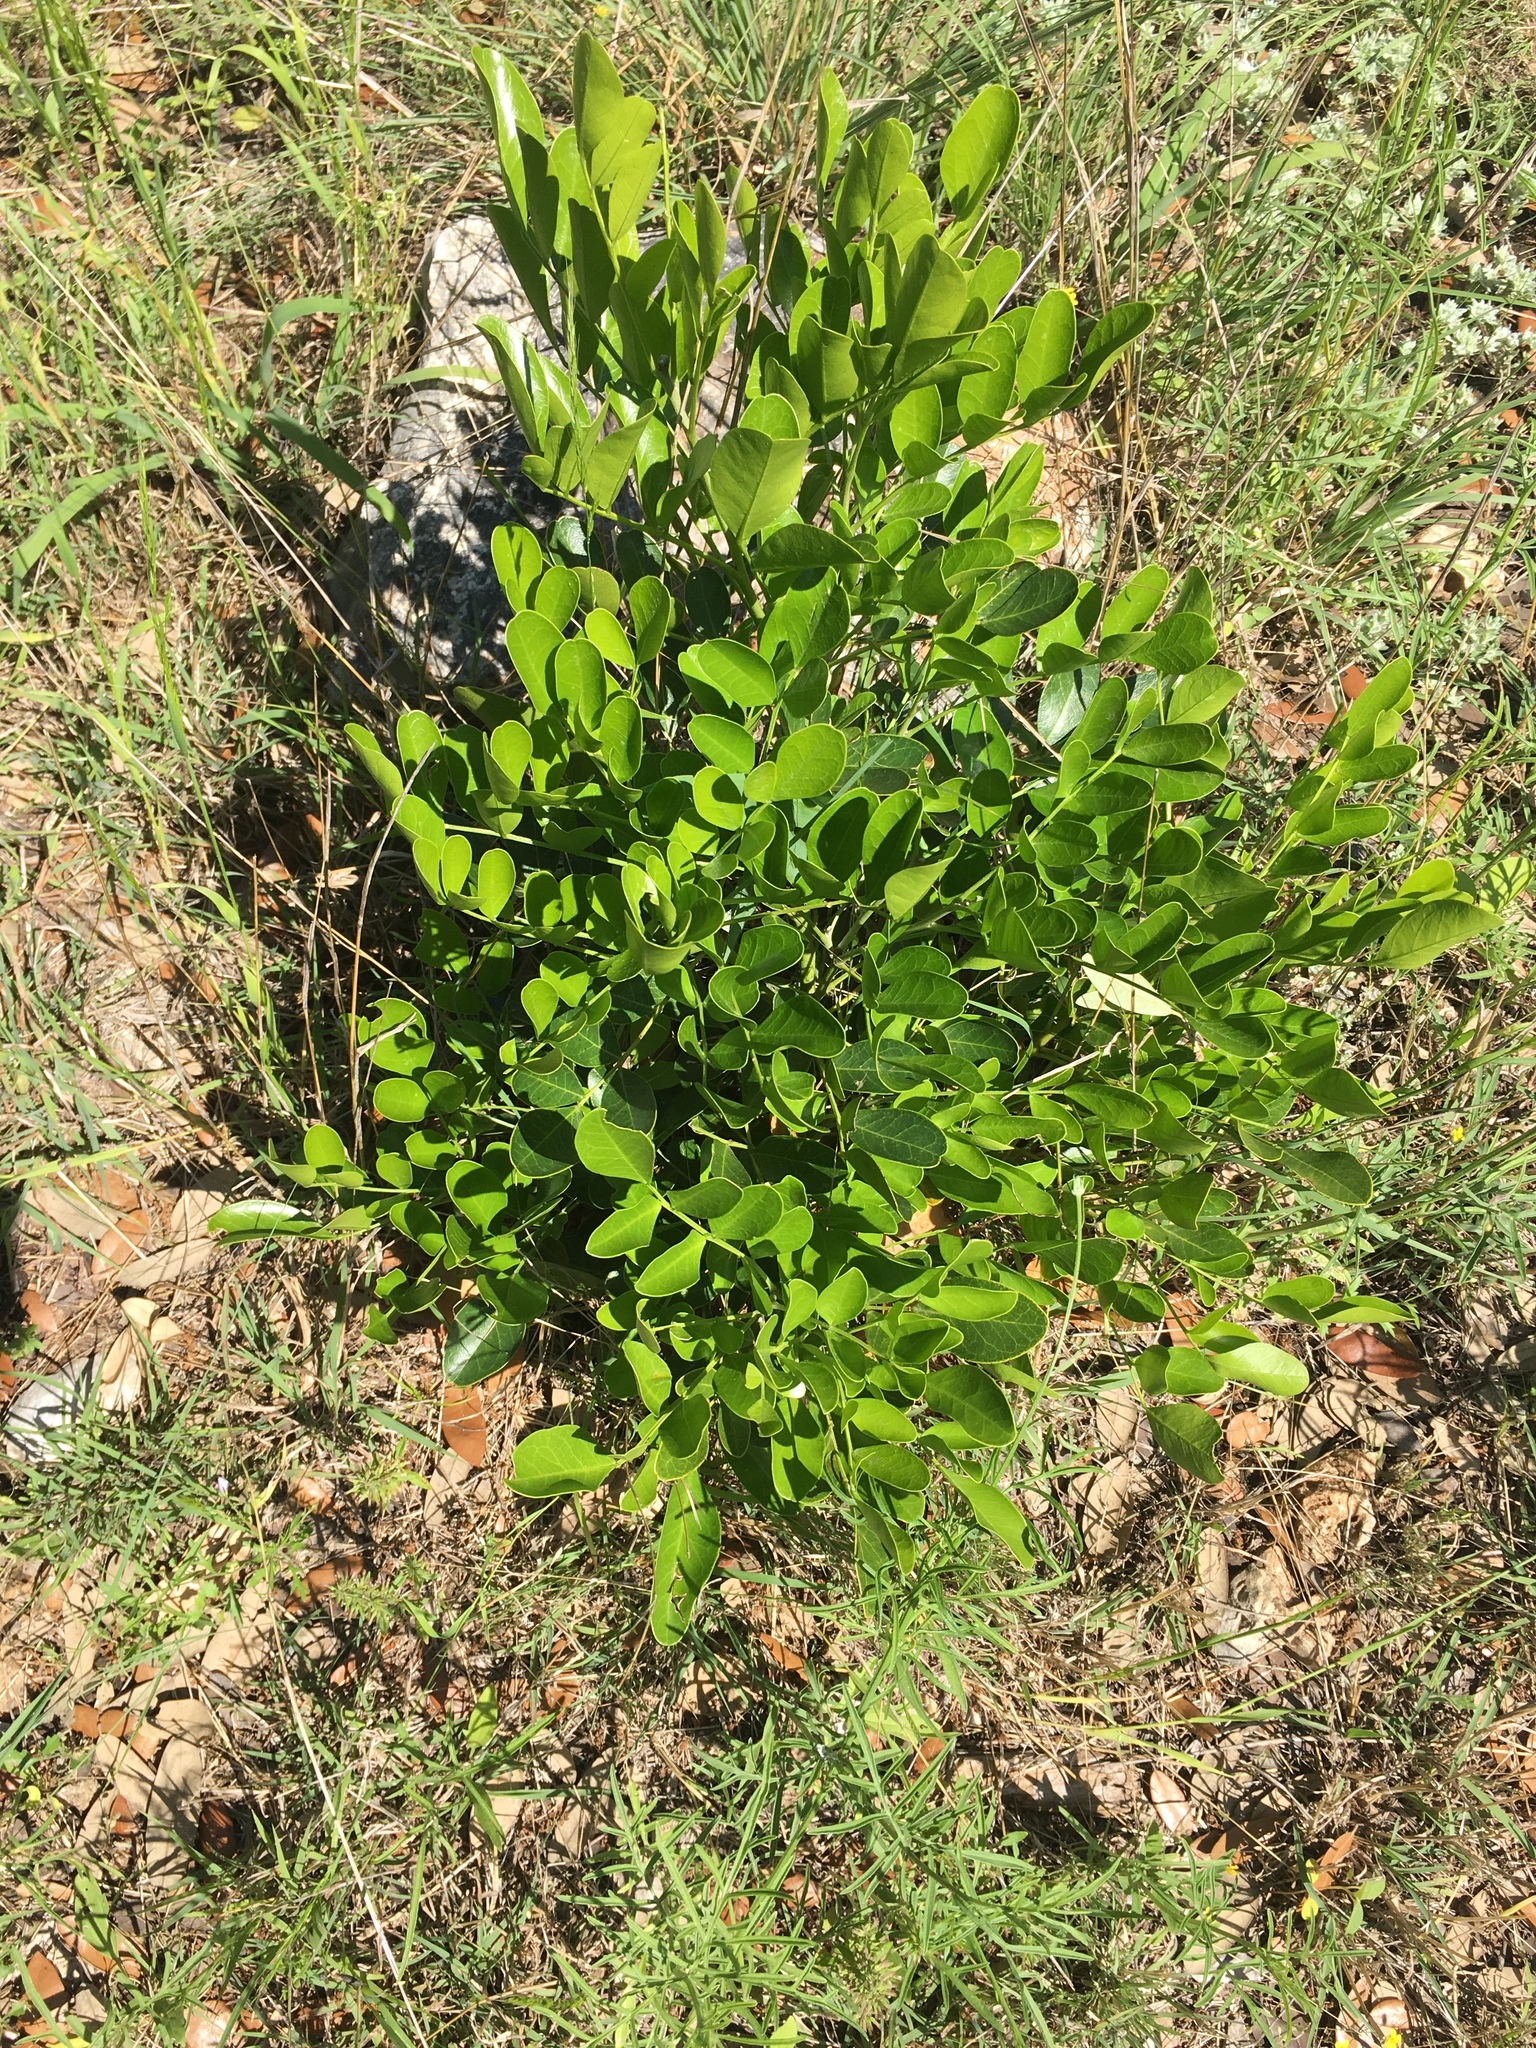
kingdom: Plantae
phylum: Tracheophyta
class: Magnoliopsida
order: Fabales
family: Fabaceae
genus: Dermatophyllum
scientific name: Dermatophyllum secundiflorum
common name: Texas-mountain-laurel
